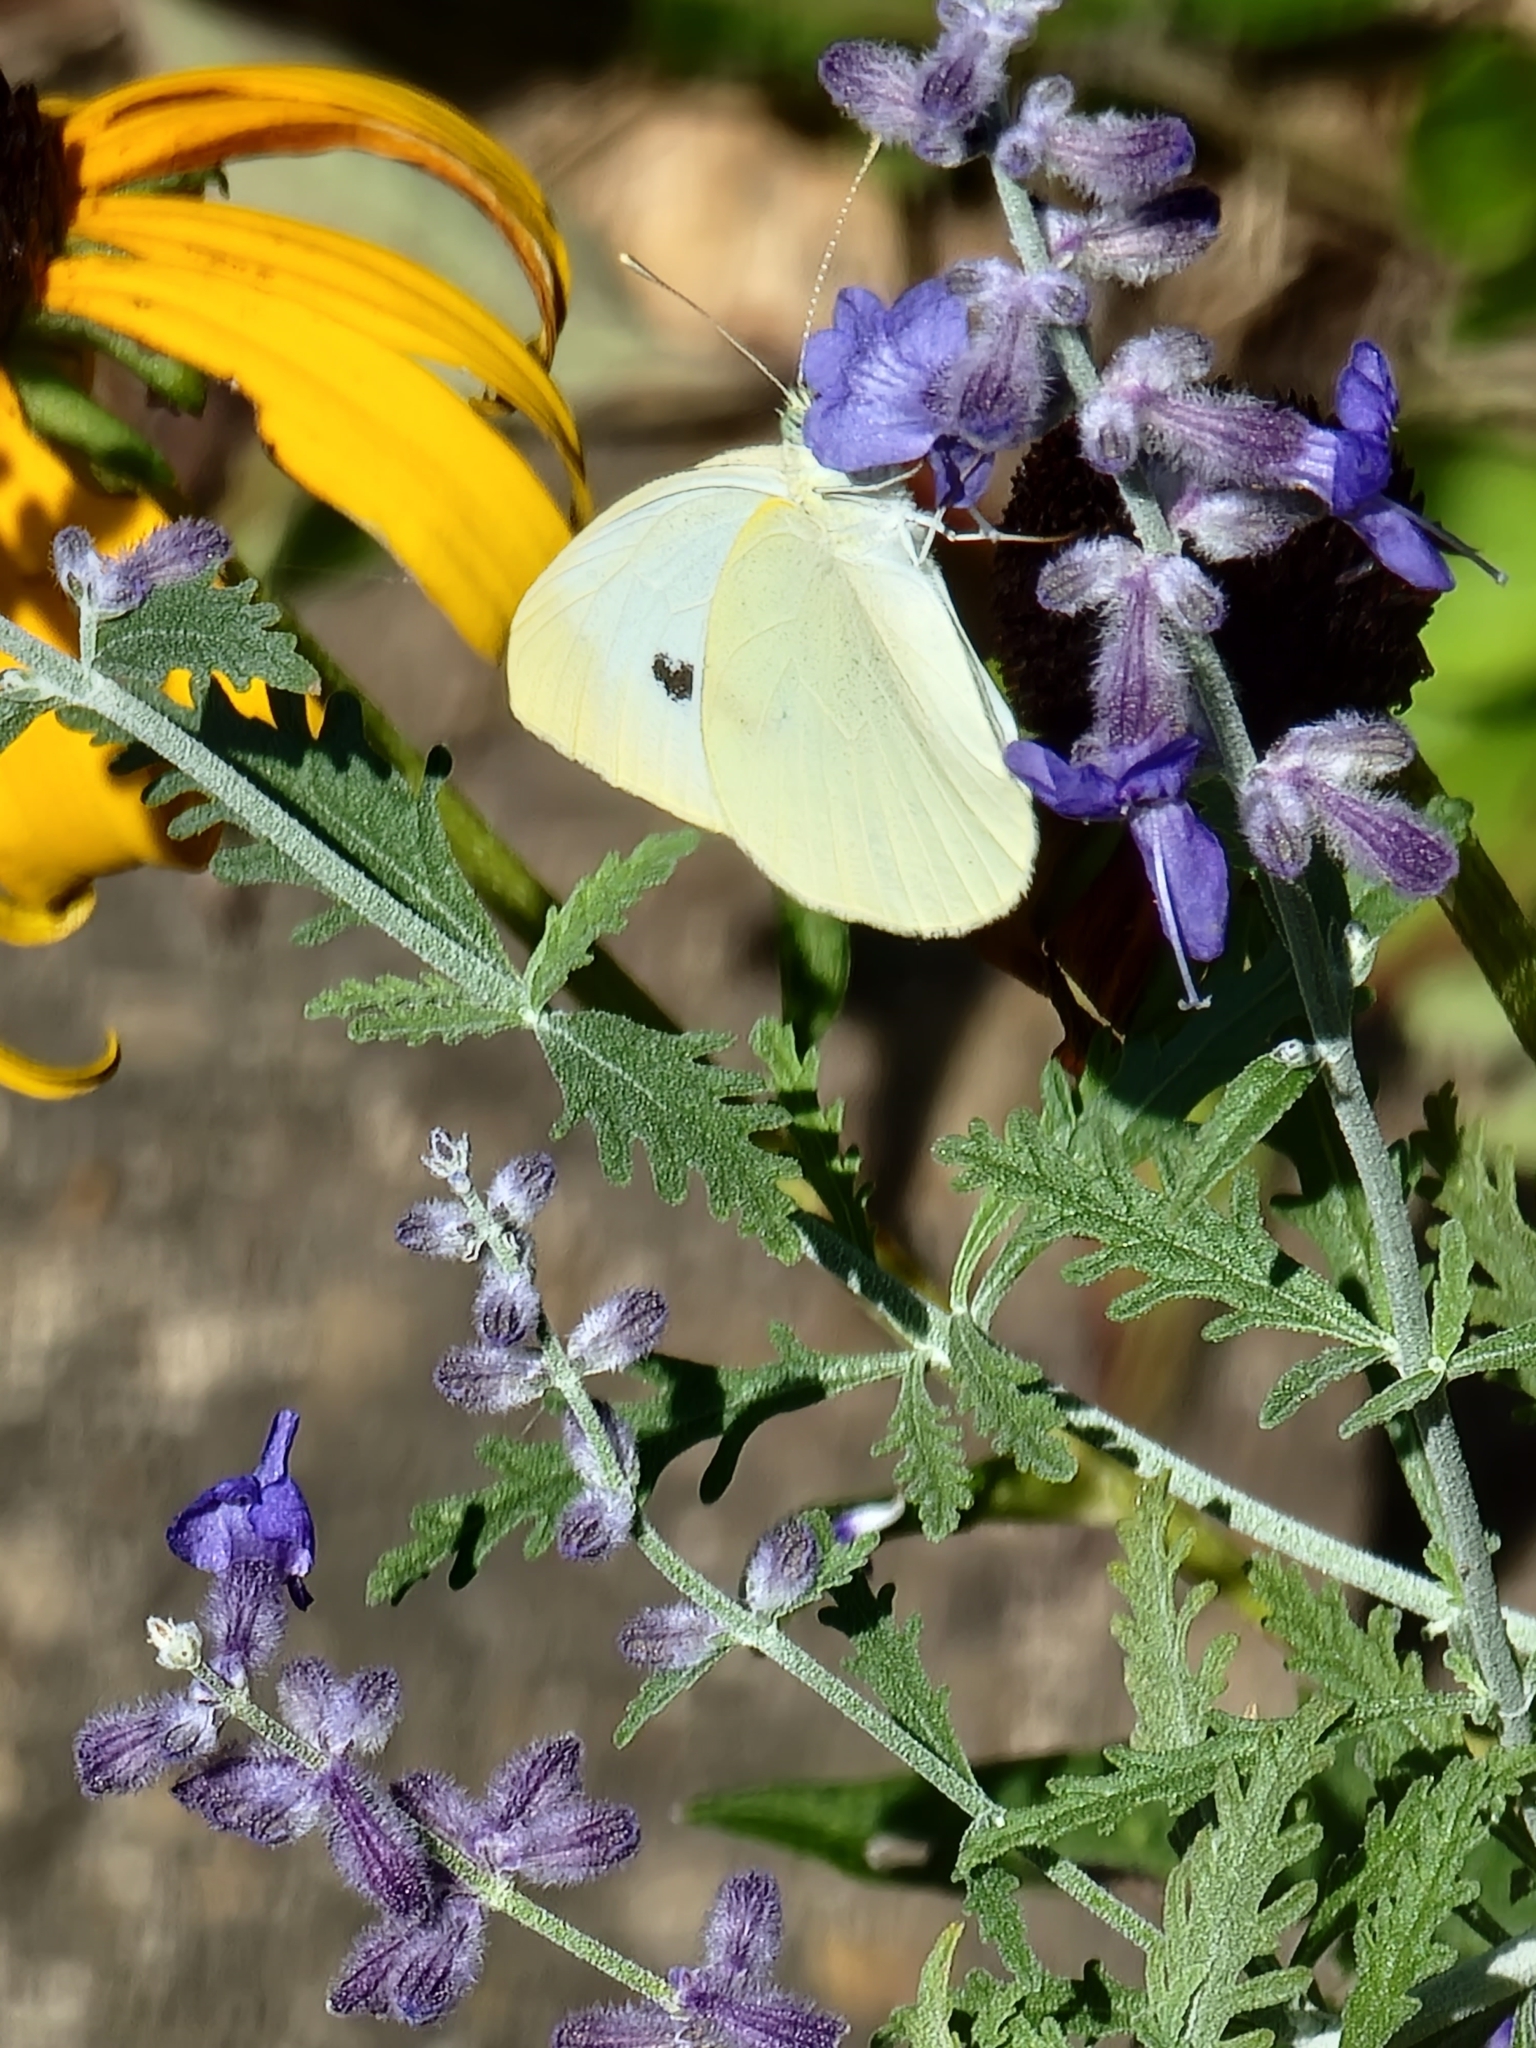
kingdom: Animalia
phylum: Arthropoda
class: Insecta
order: Lepidoptera
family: Pieridae
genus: Pieris
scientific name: Pieris rapae
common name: Small white
